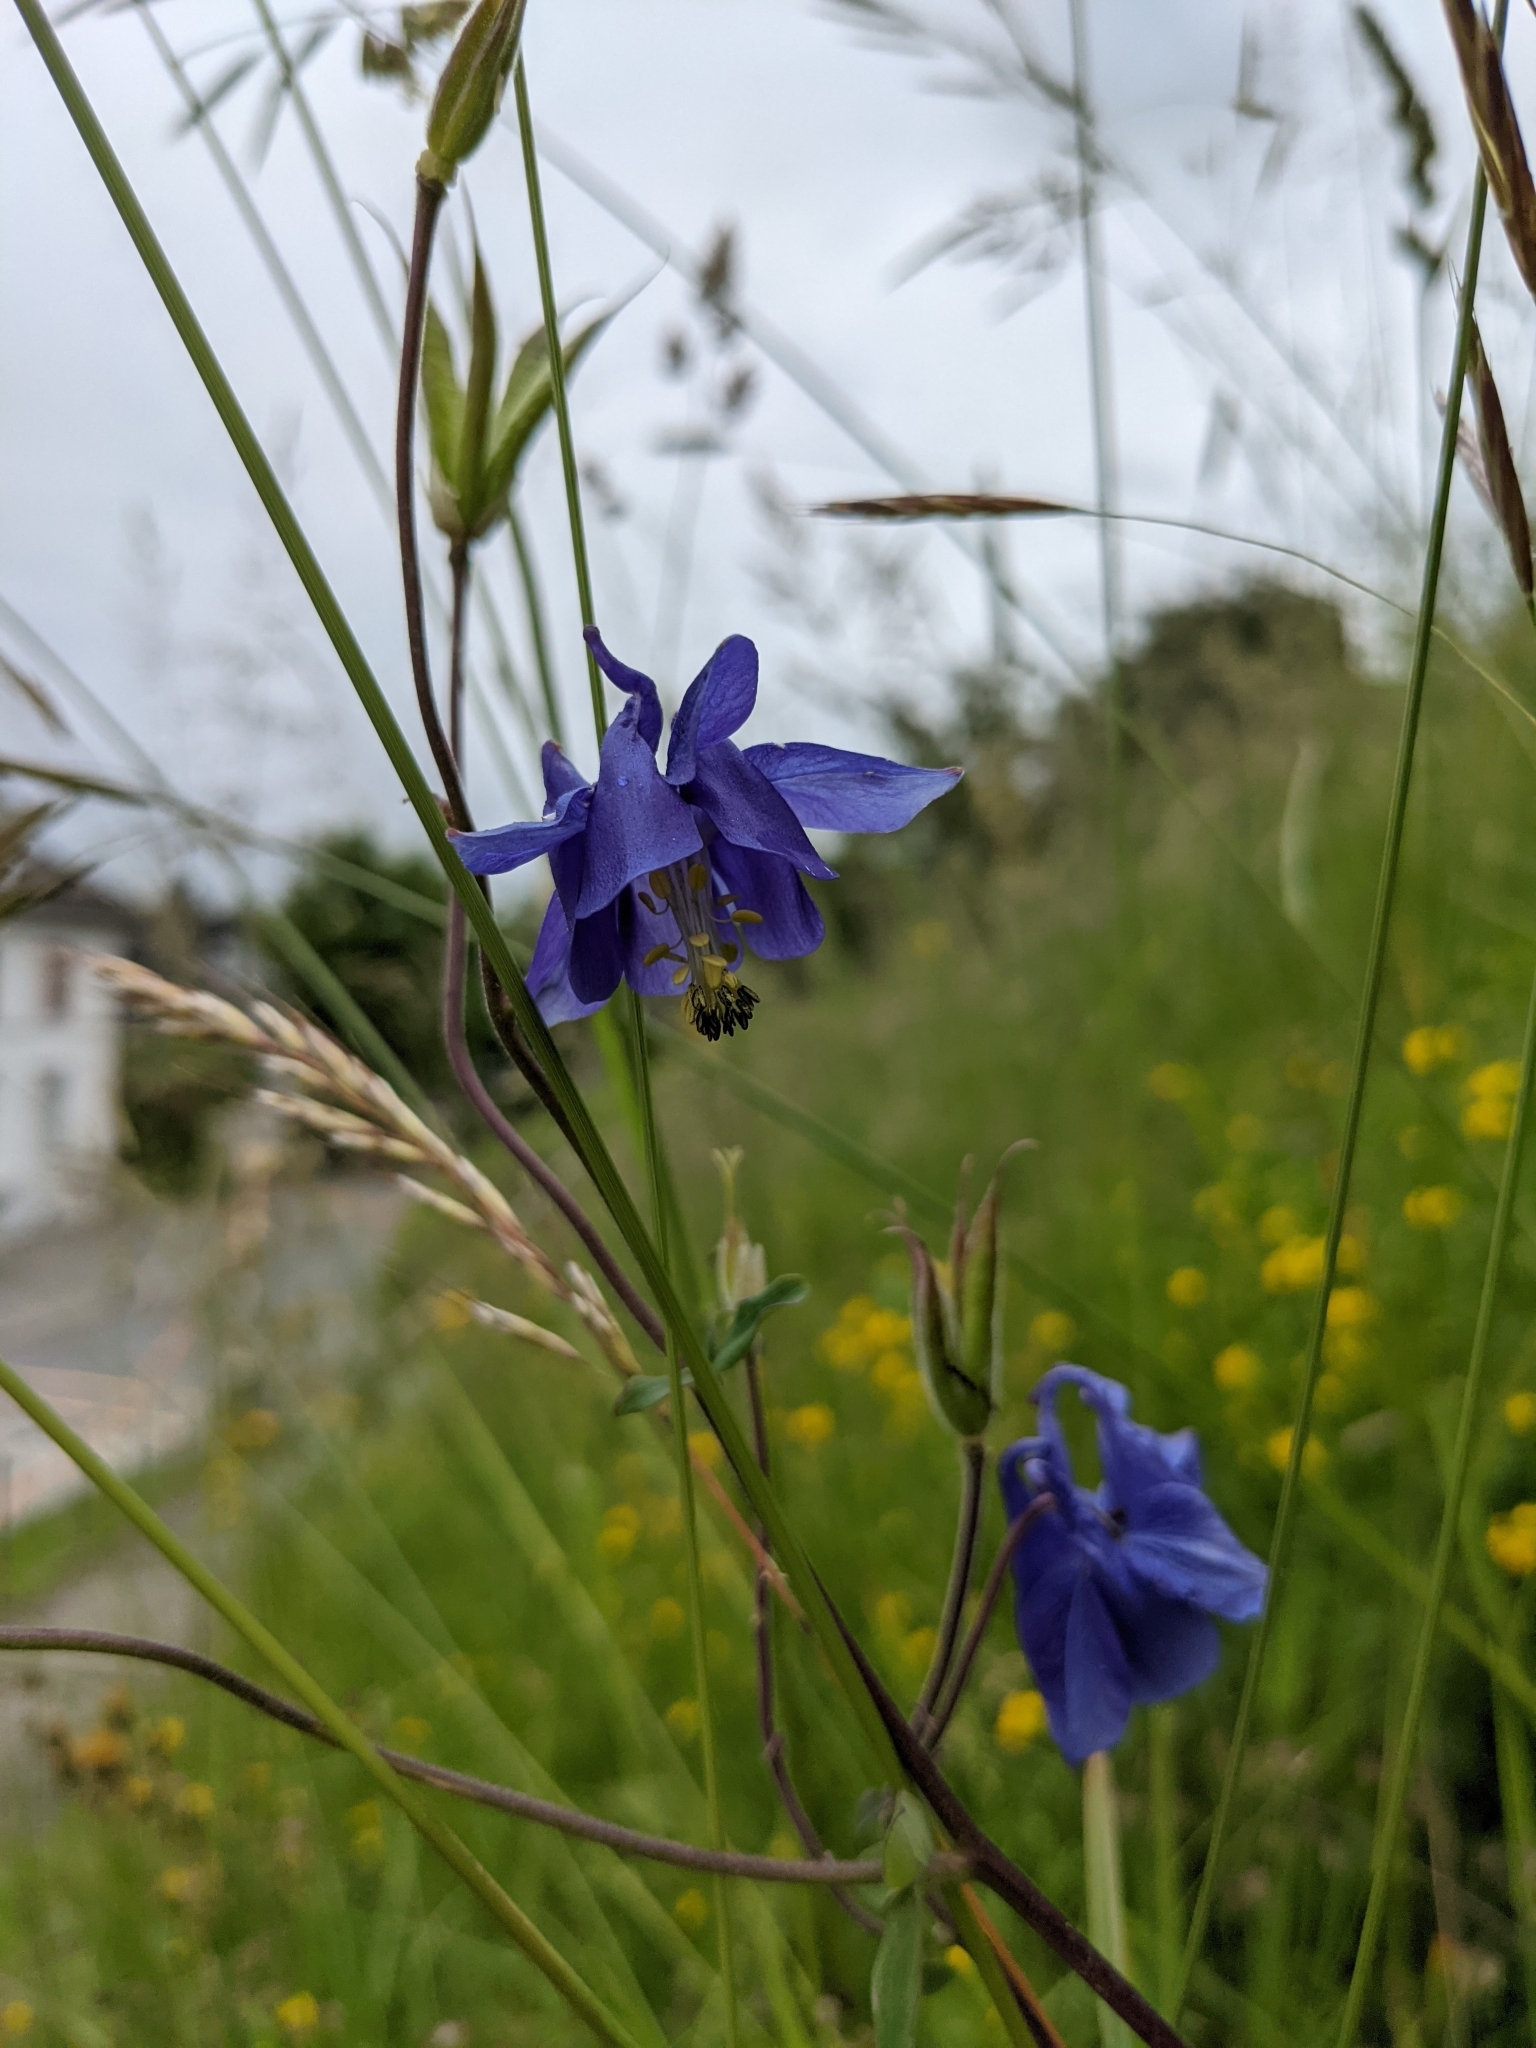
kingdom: Plantae
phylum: Tracheophyta
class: Magnoliopsida
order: Ranunculales
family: Ranunculaceae
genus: Aquilegia
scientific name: Aquilegia vulgaris
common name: Columbine
